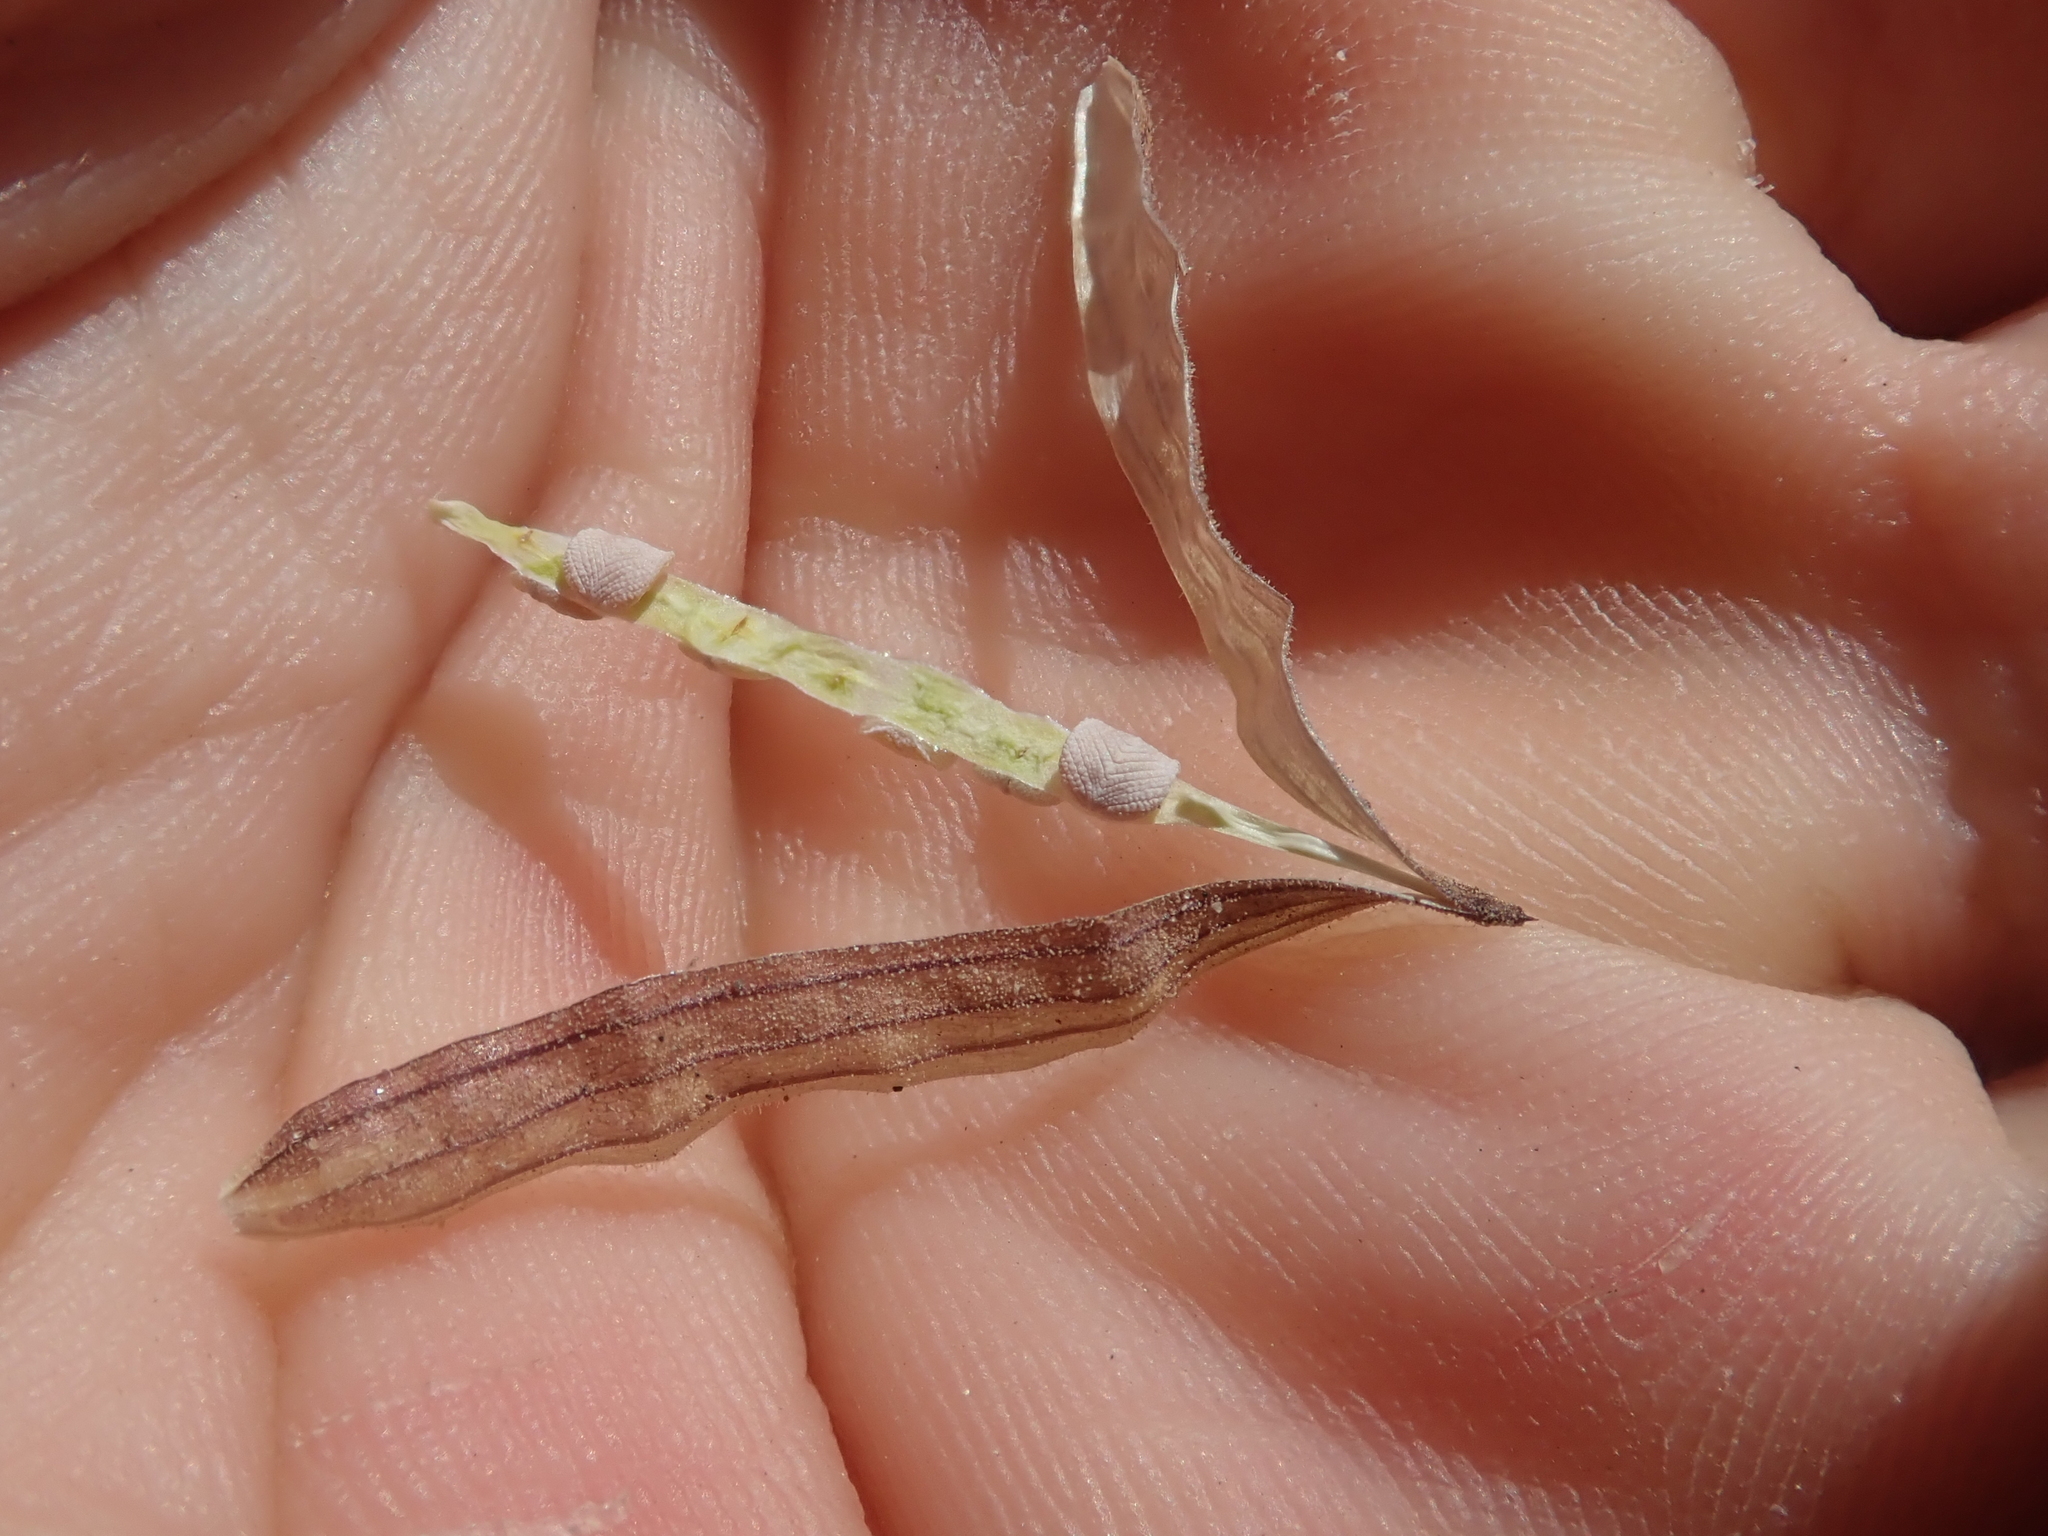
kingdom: Plantae
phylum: Tracheophyta
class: Magnoliopsida
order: Lamiales
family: Bignoniaceae
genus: Argylia
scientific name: Argylia checoensis
